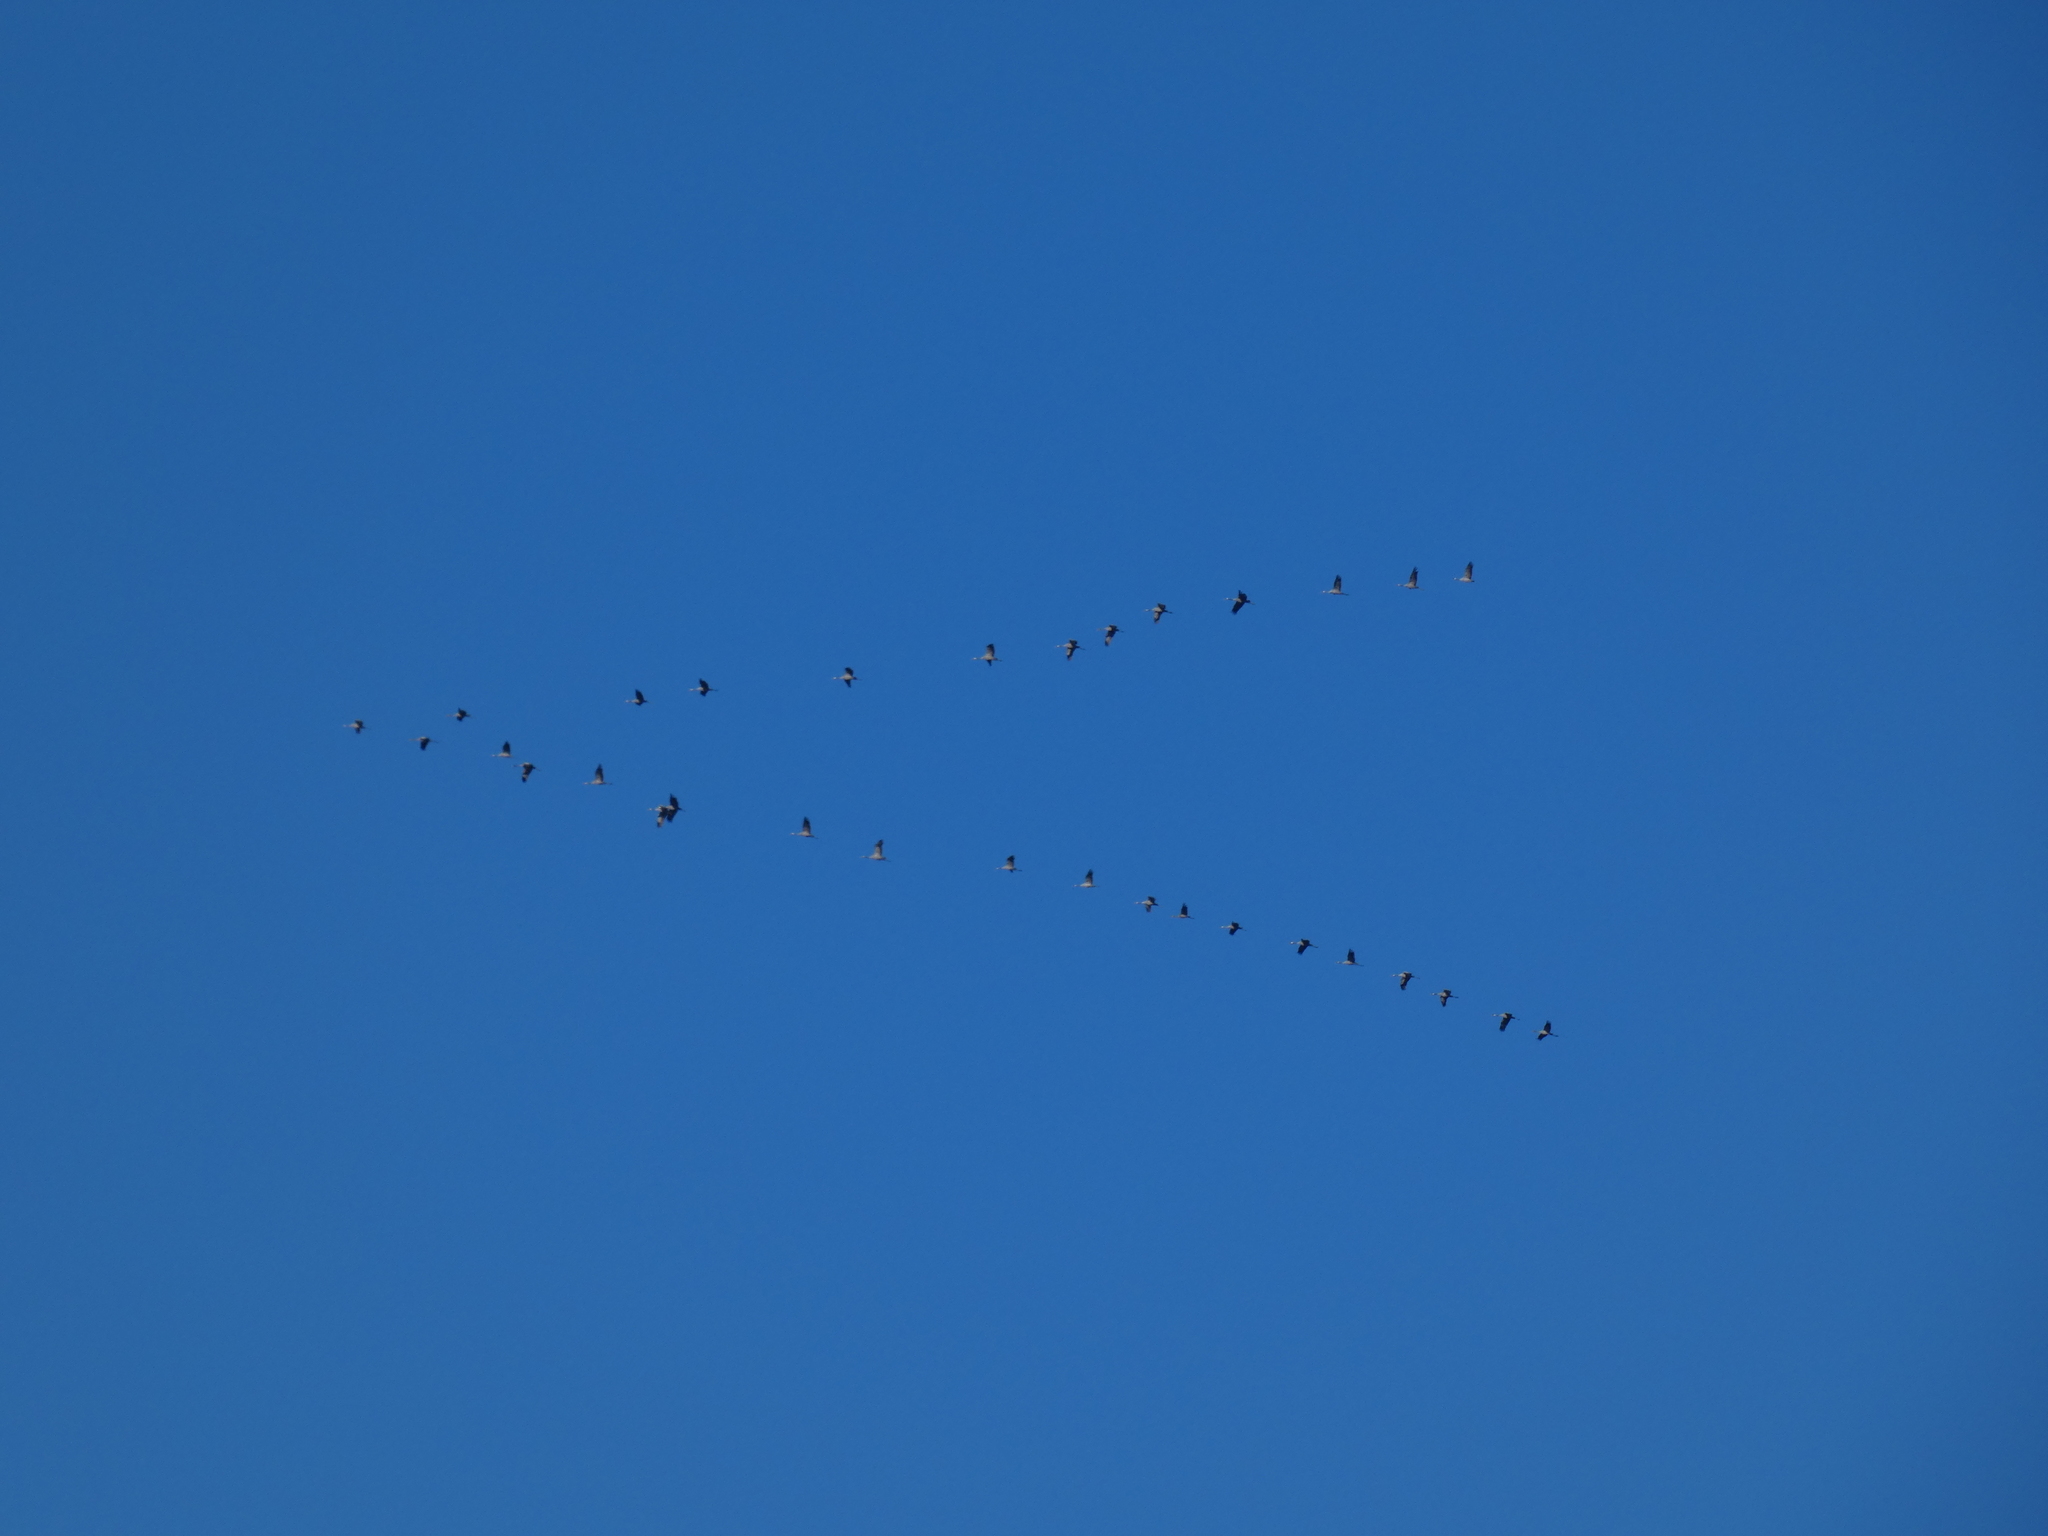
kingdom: Animalia
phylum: Chordata
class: Aves
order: Gruiformes
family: Gruidae
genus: Grus
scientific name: Grus grus
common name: Common crane
